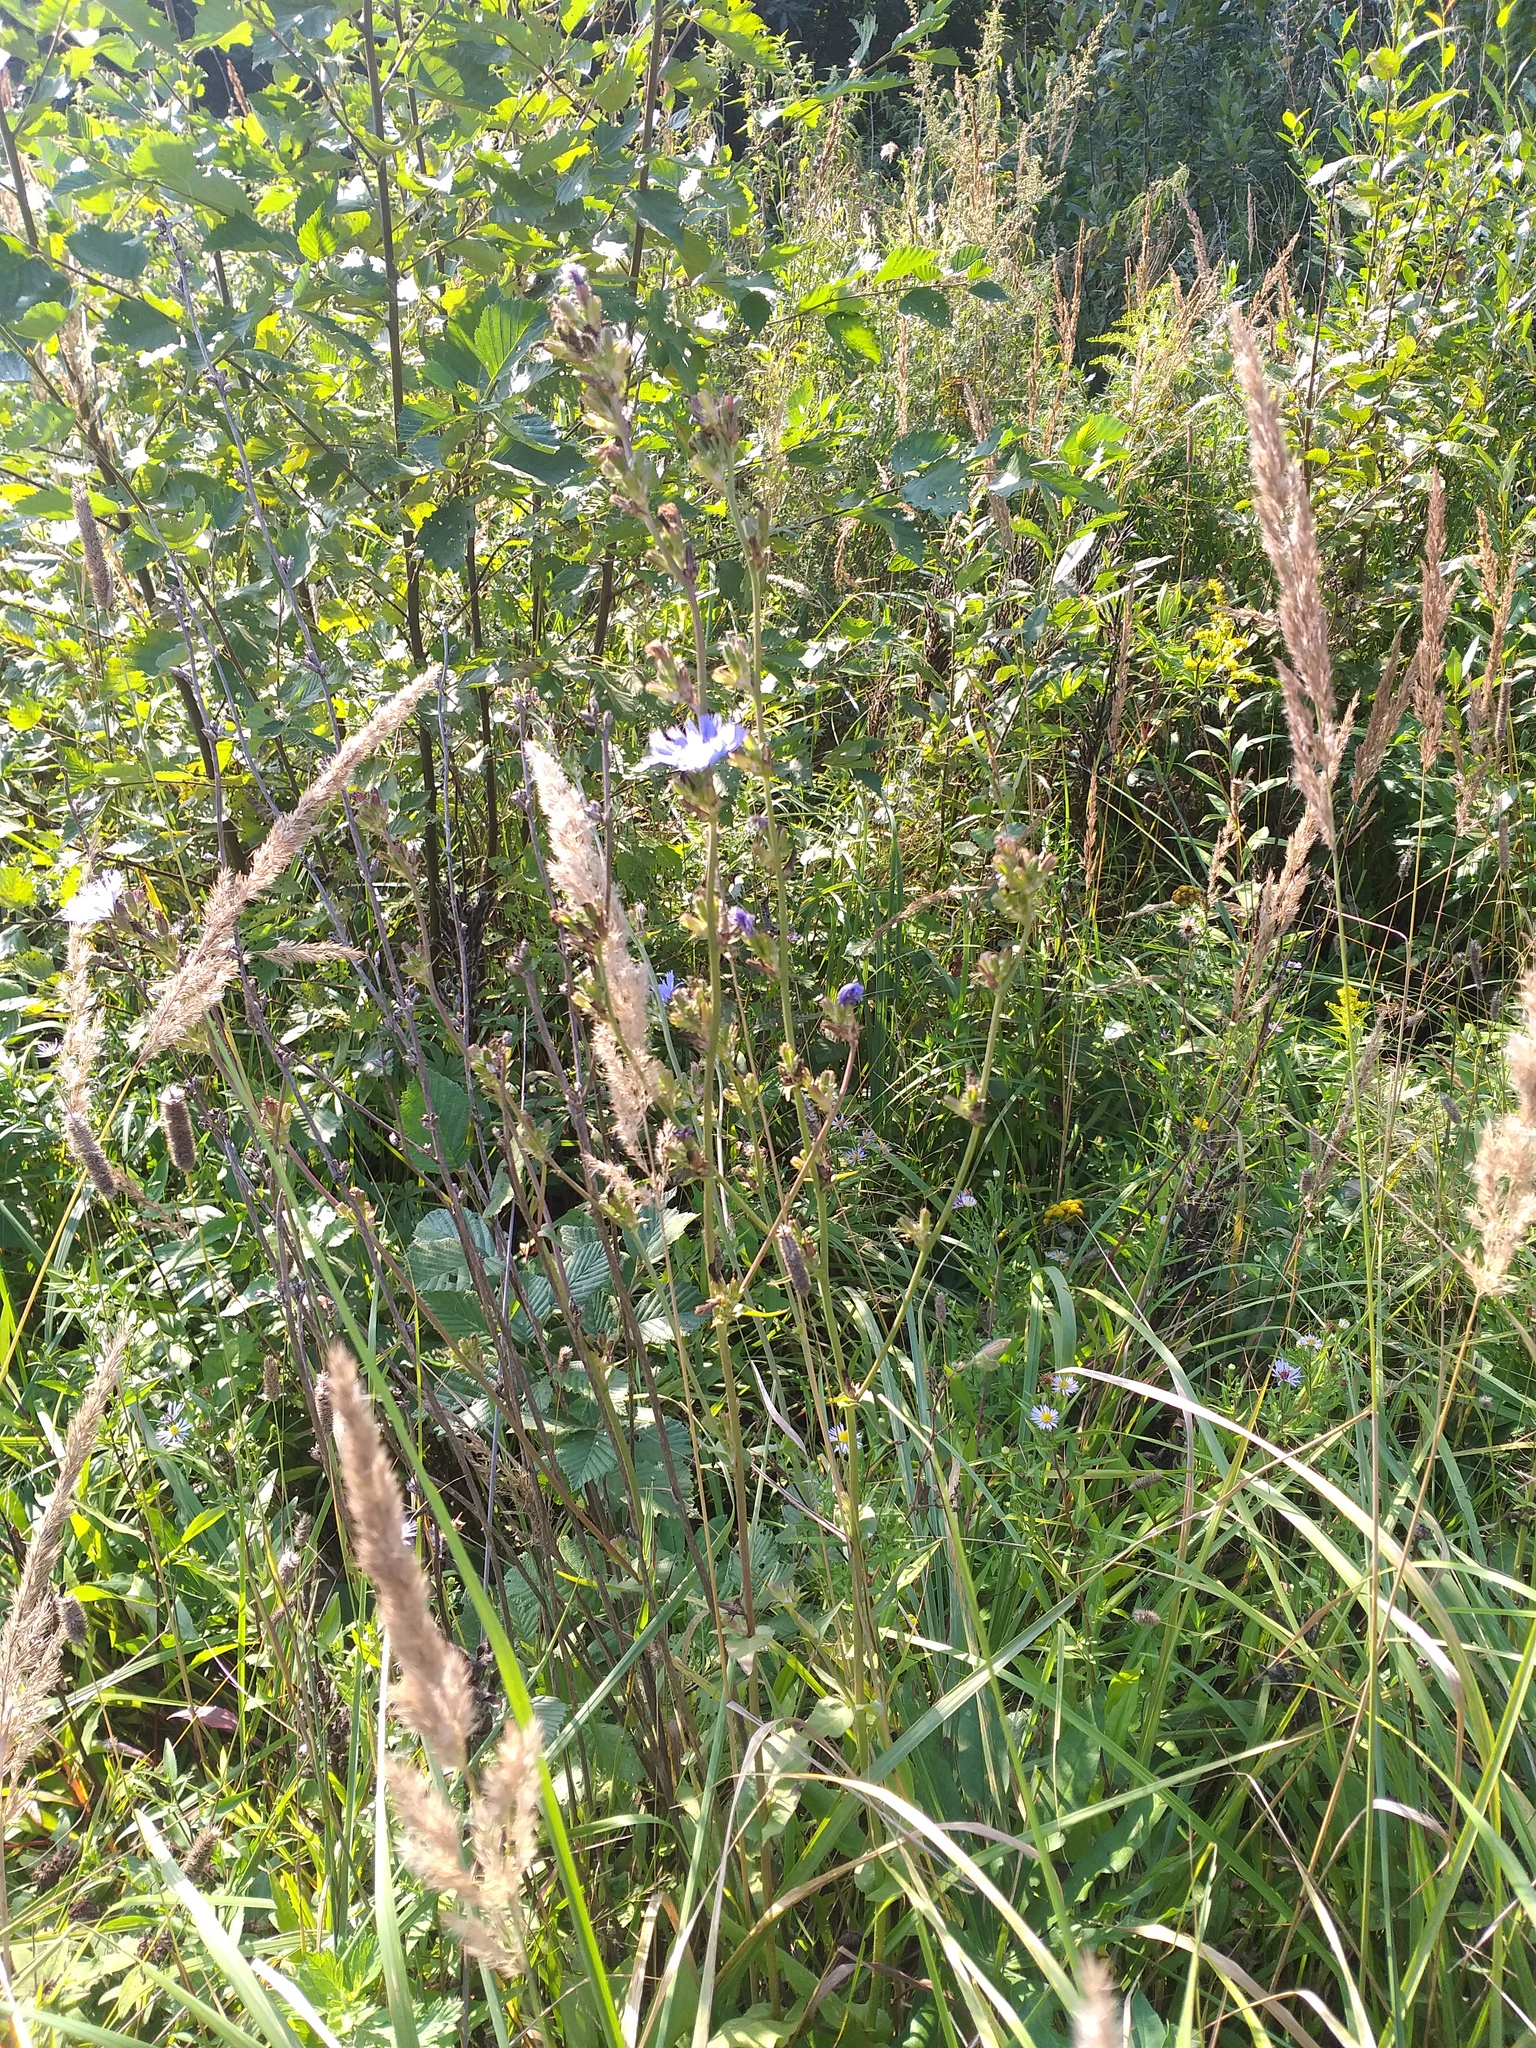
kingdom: Plantae
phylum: Tracheophyta
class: Magnoliopsida
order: Asterales
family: Asteraceae
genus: Cichorium
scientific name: Cichorium intybus
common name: Chicory
